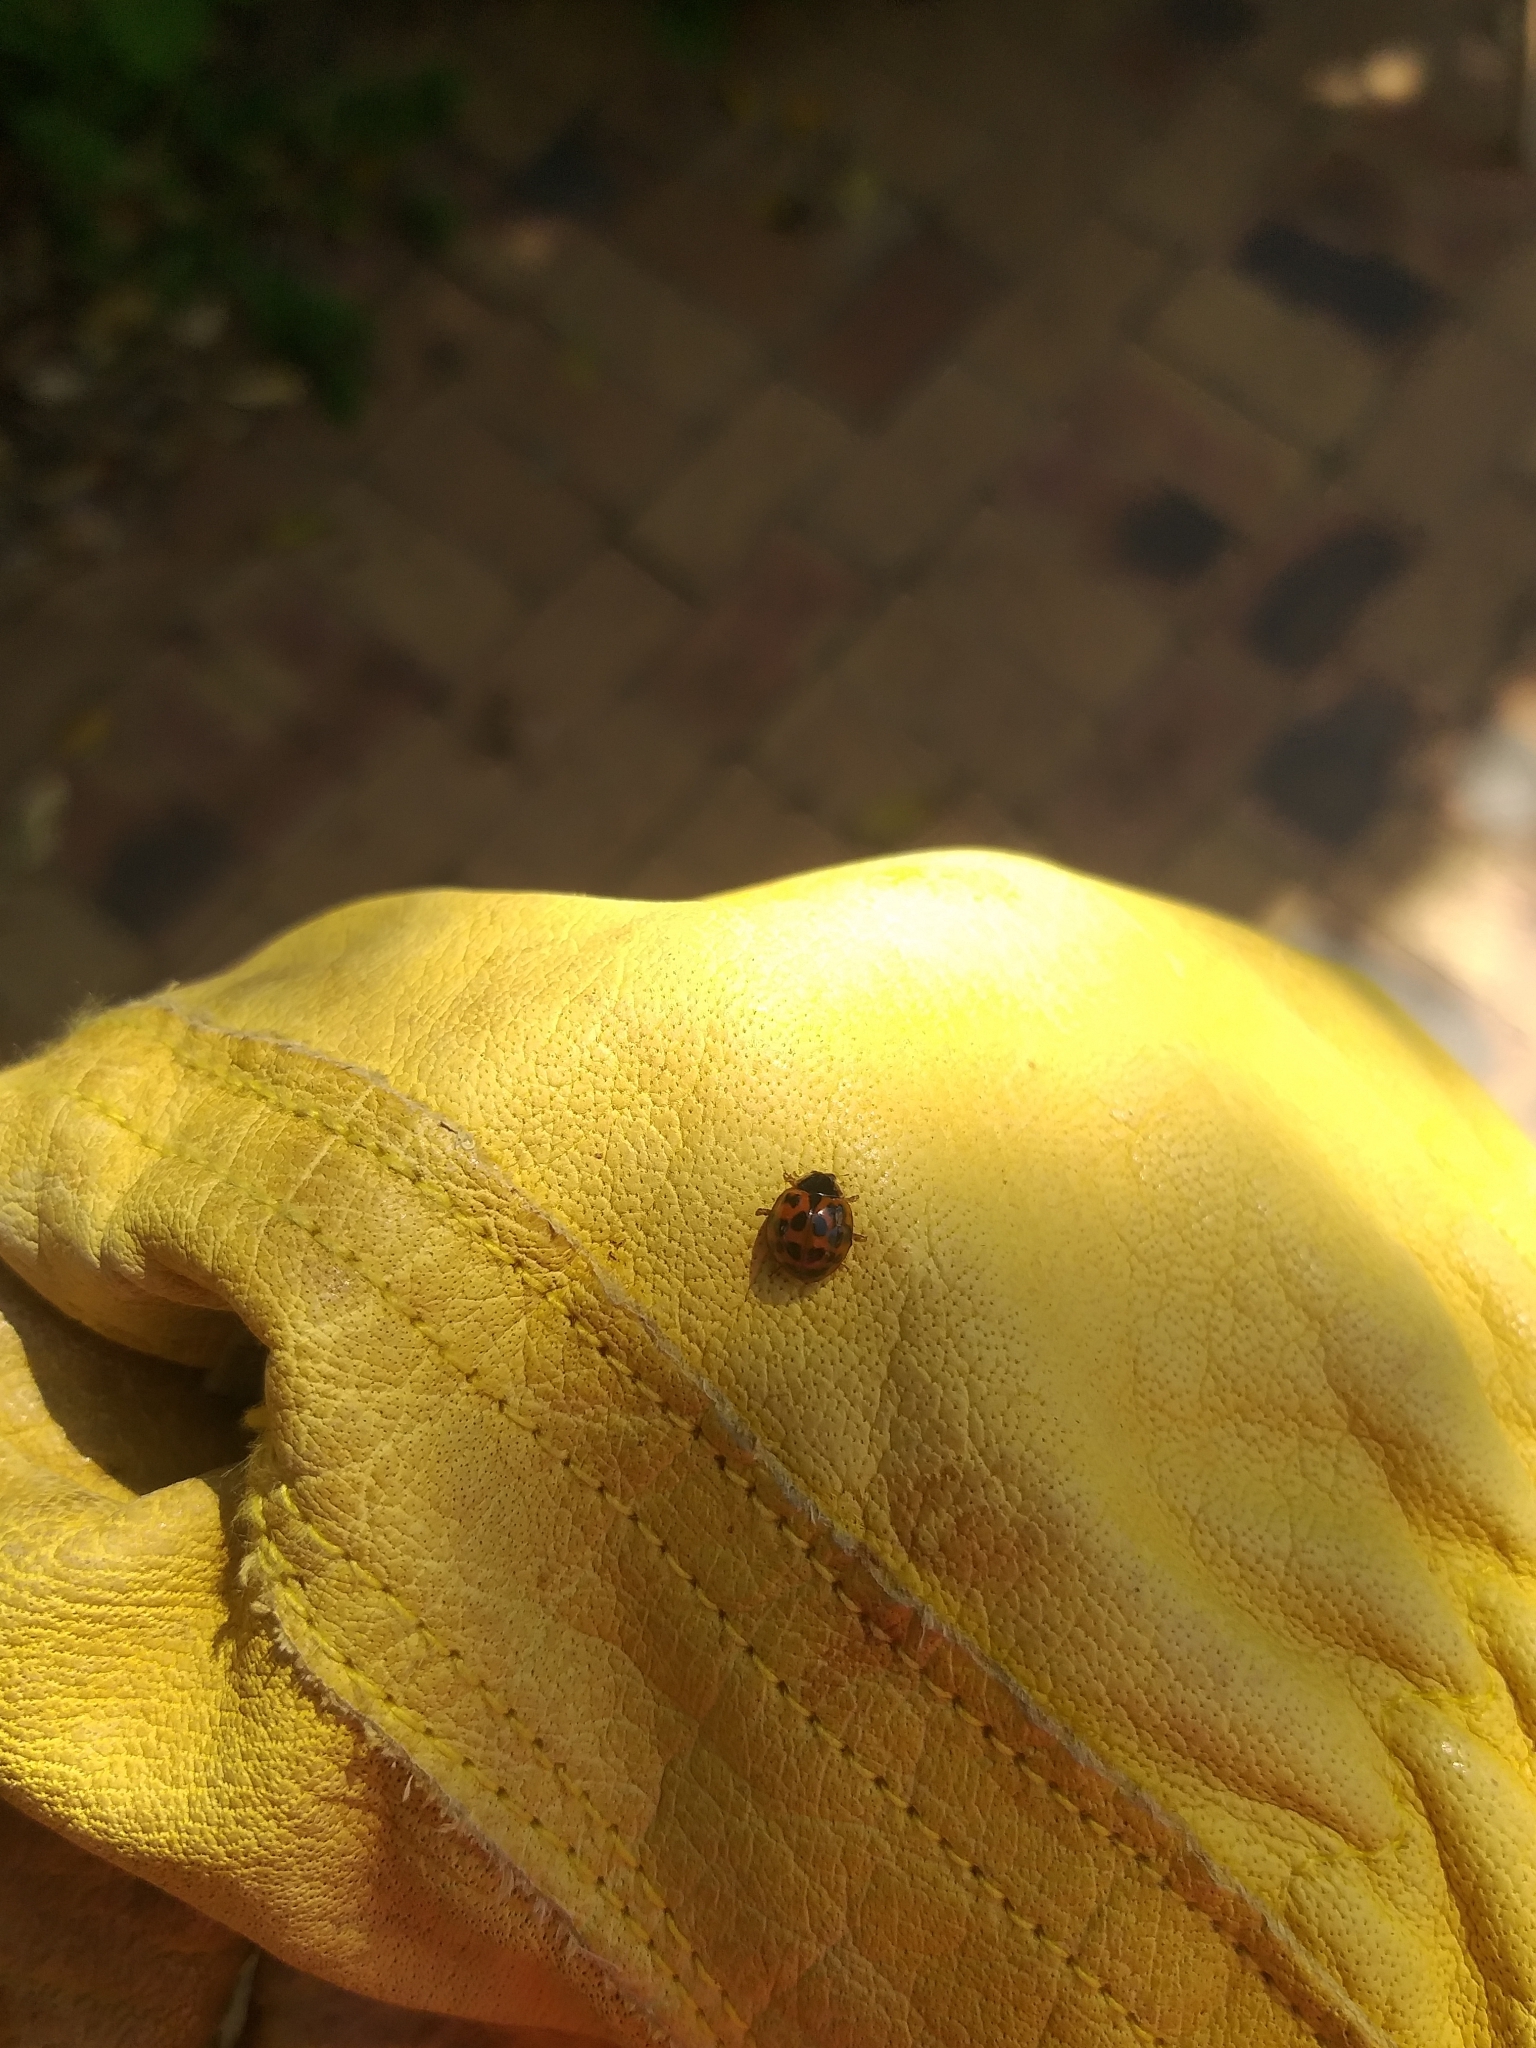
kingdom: Animalia
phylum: Arthropoda
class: Insecta
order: Coleoptera
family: Coccinellidae
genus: Harmonia
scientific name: Harmonia axyridis
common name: Harlequin ladybird
